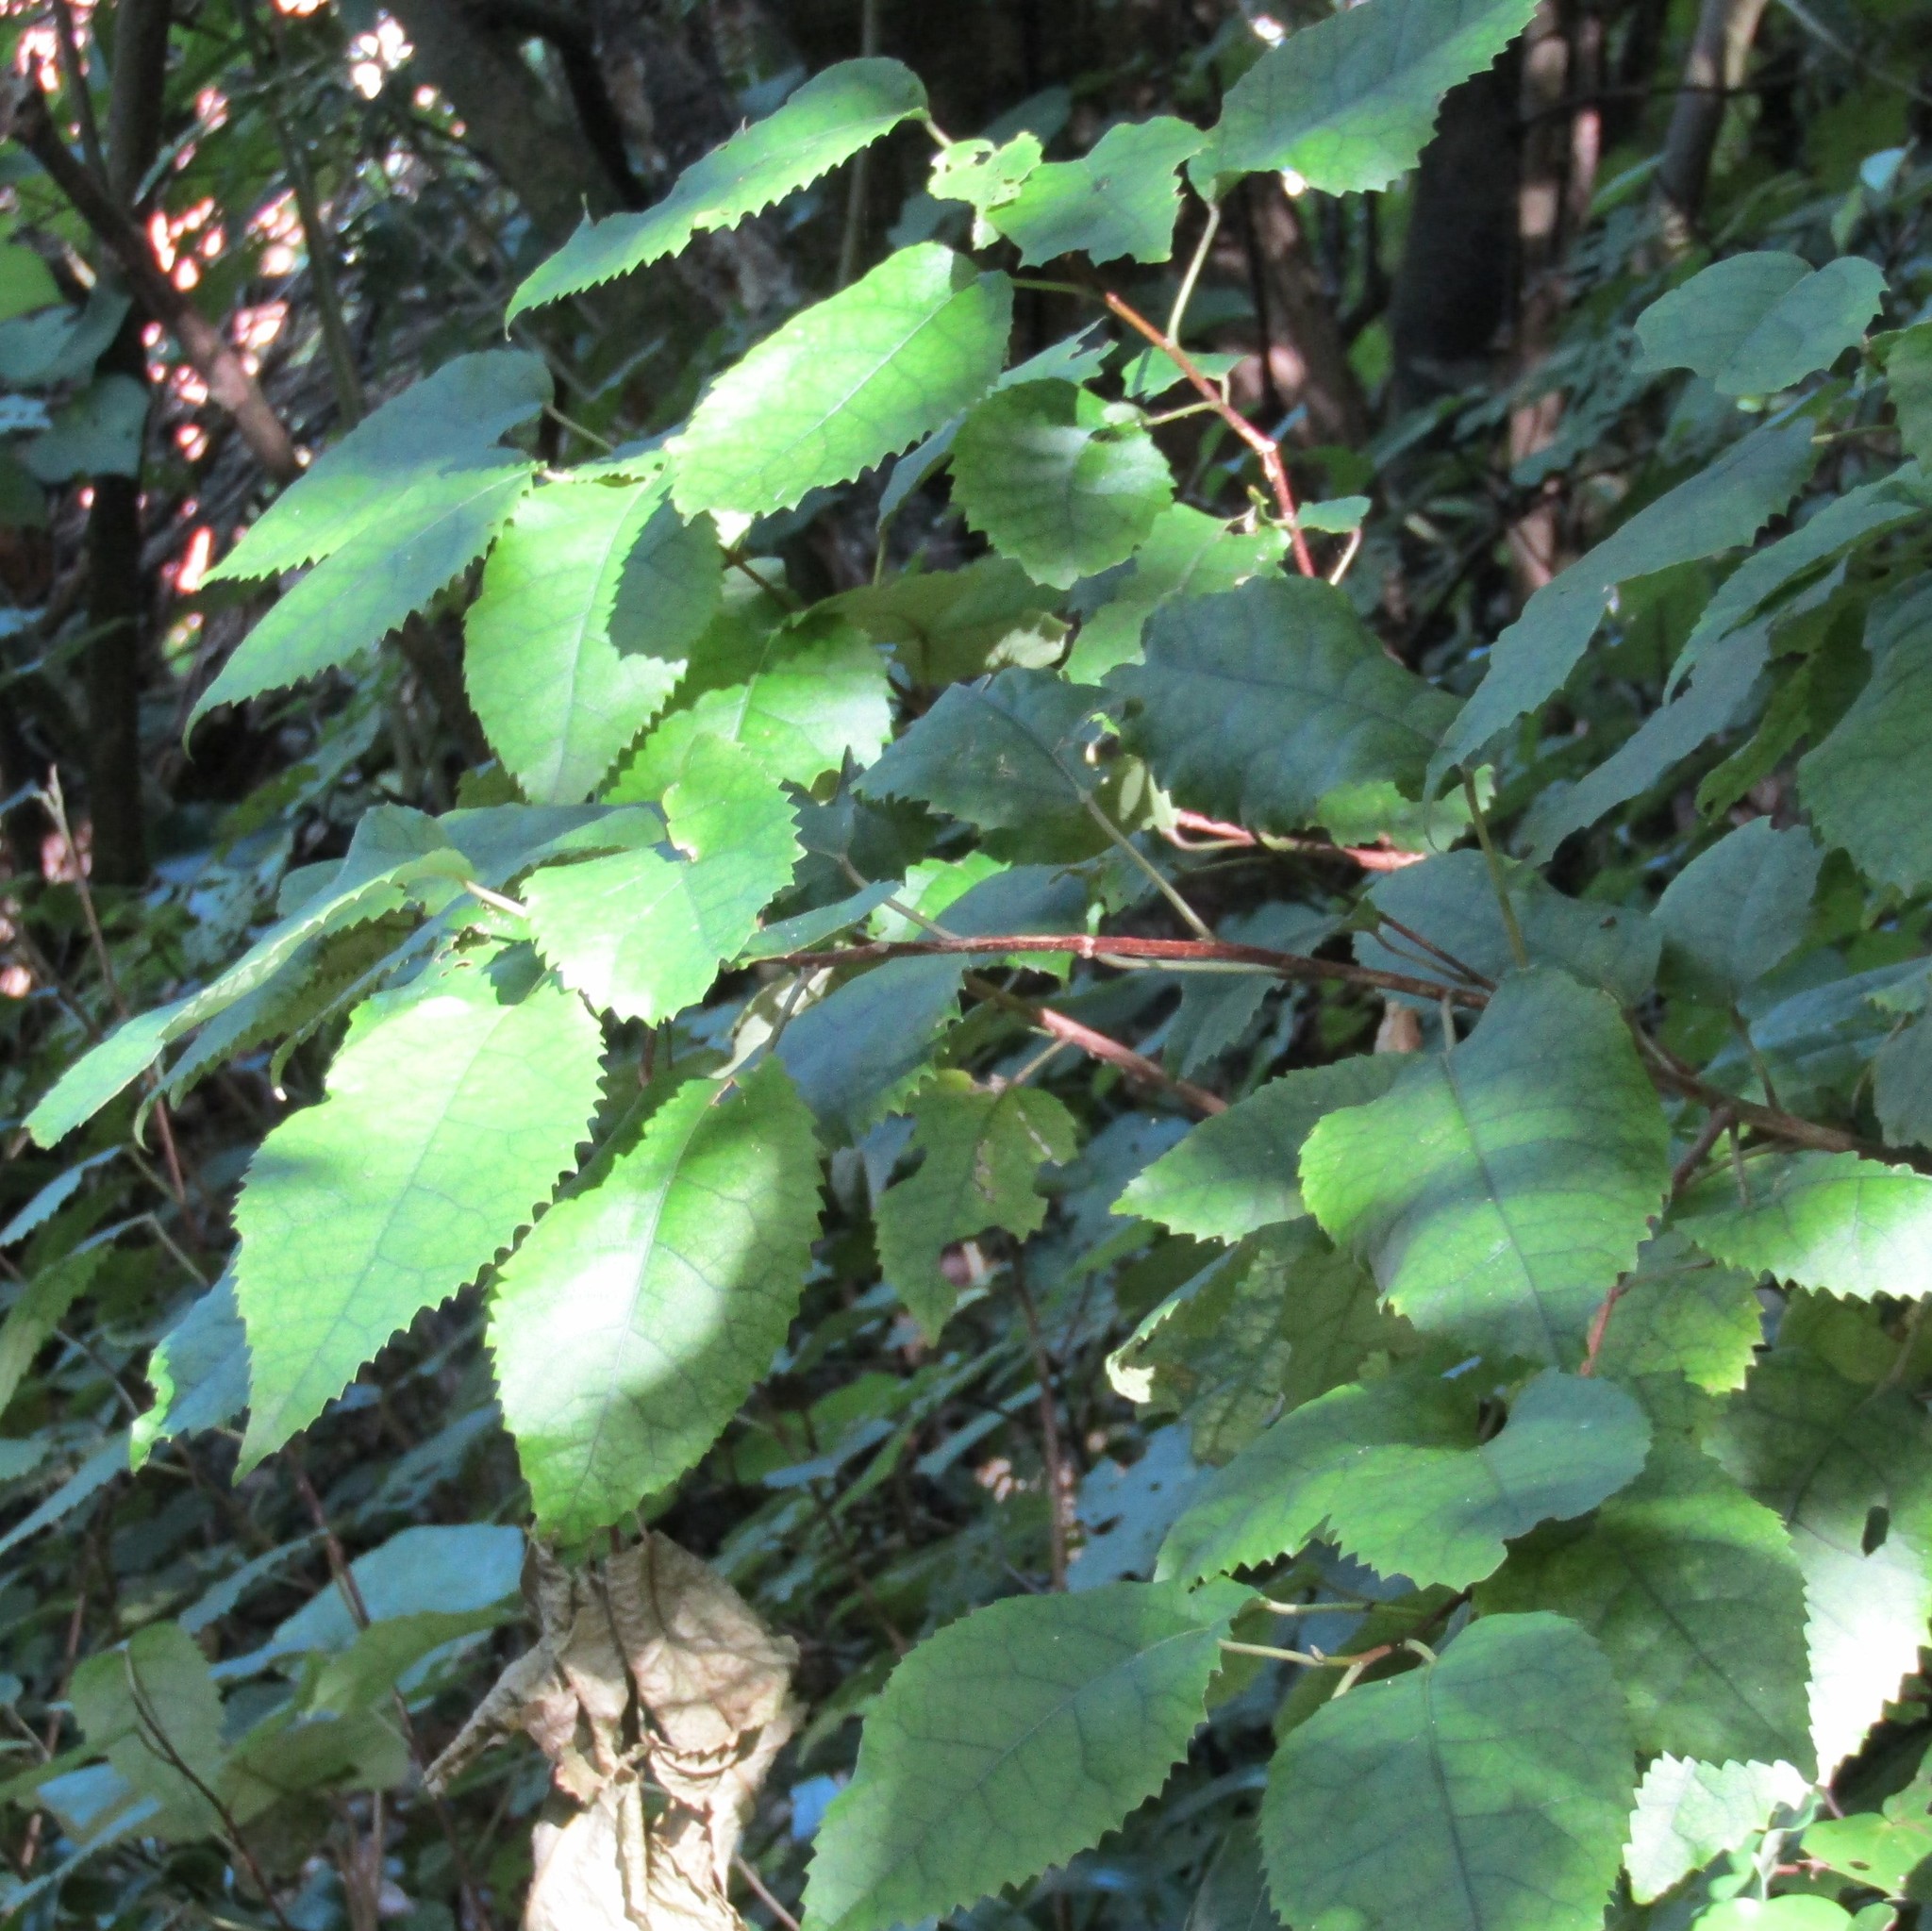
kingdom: Plantae
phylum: Tracheophyta
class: Magnoliopsida
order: Malvales
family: Malvaceae
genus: Hoheria
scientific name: Hoheria populnea
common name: Lacebark
